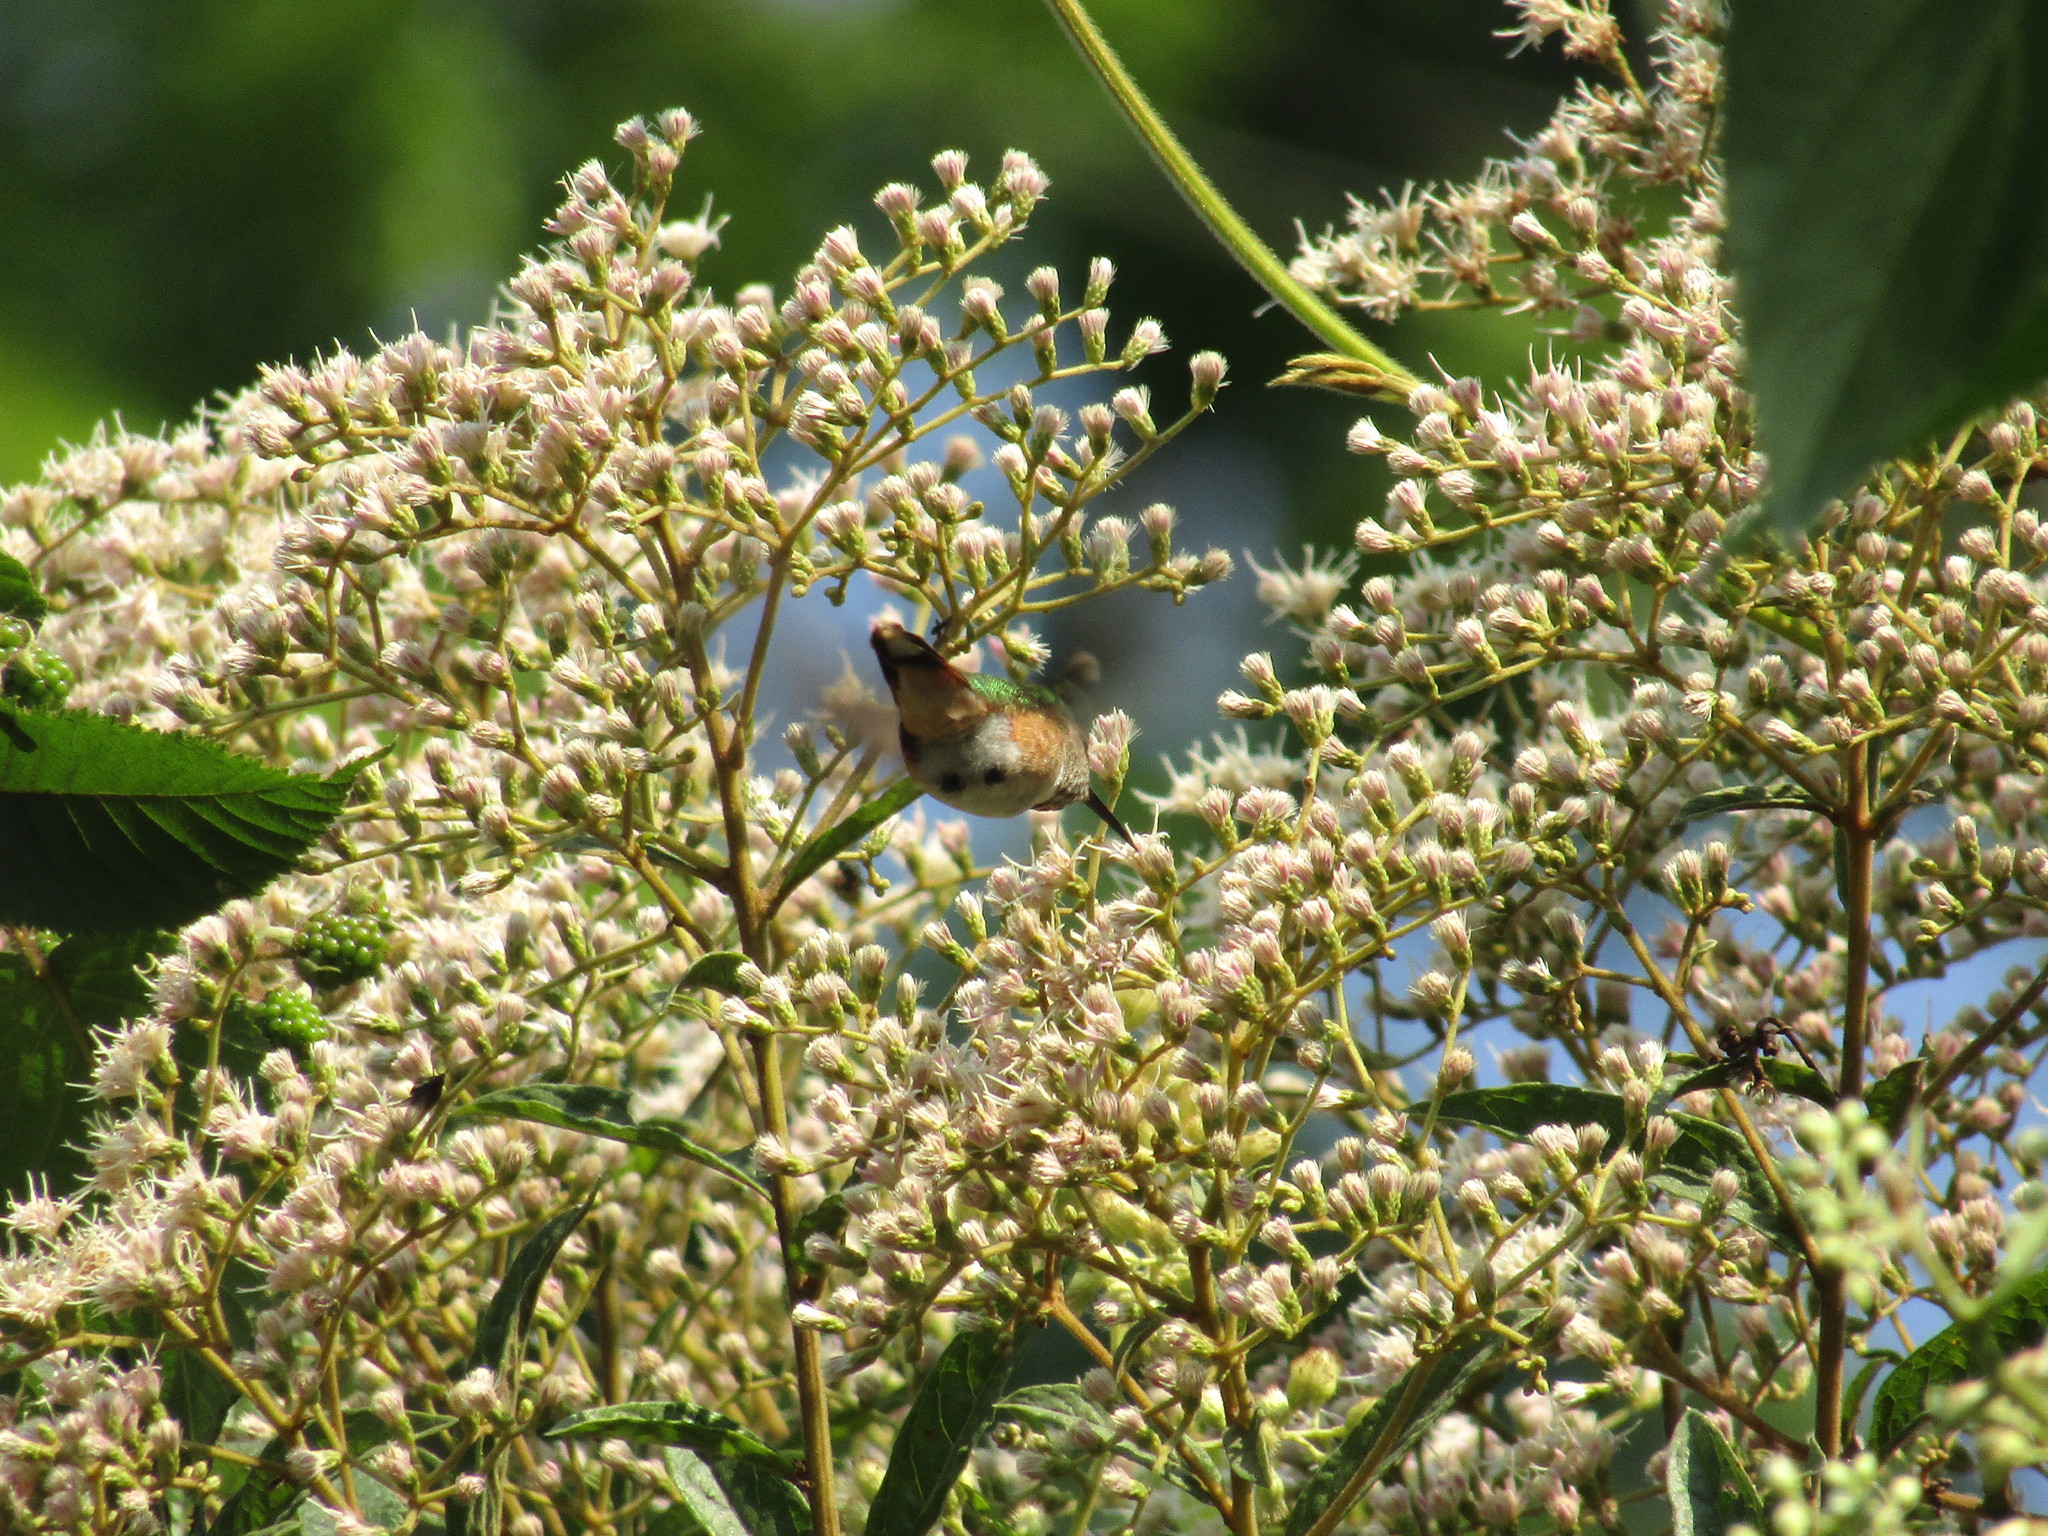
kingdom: Animalia
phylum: Chordata
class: Aves
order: Apodiformes
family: Trochilidae
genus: Selasphorus
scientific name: Selasphorus heloisa
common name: Bumblebee hummingbird
